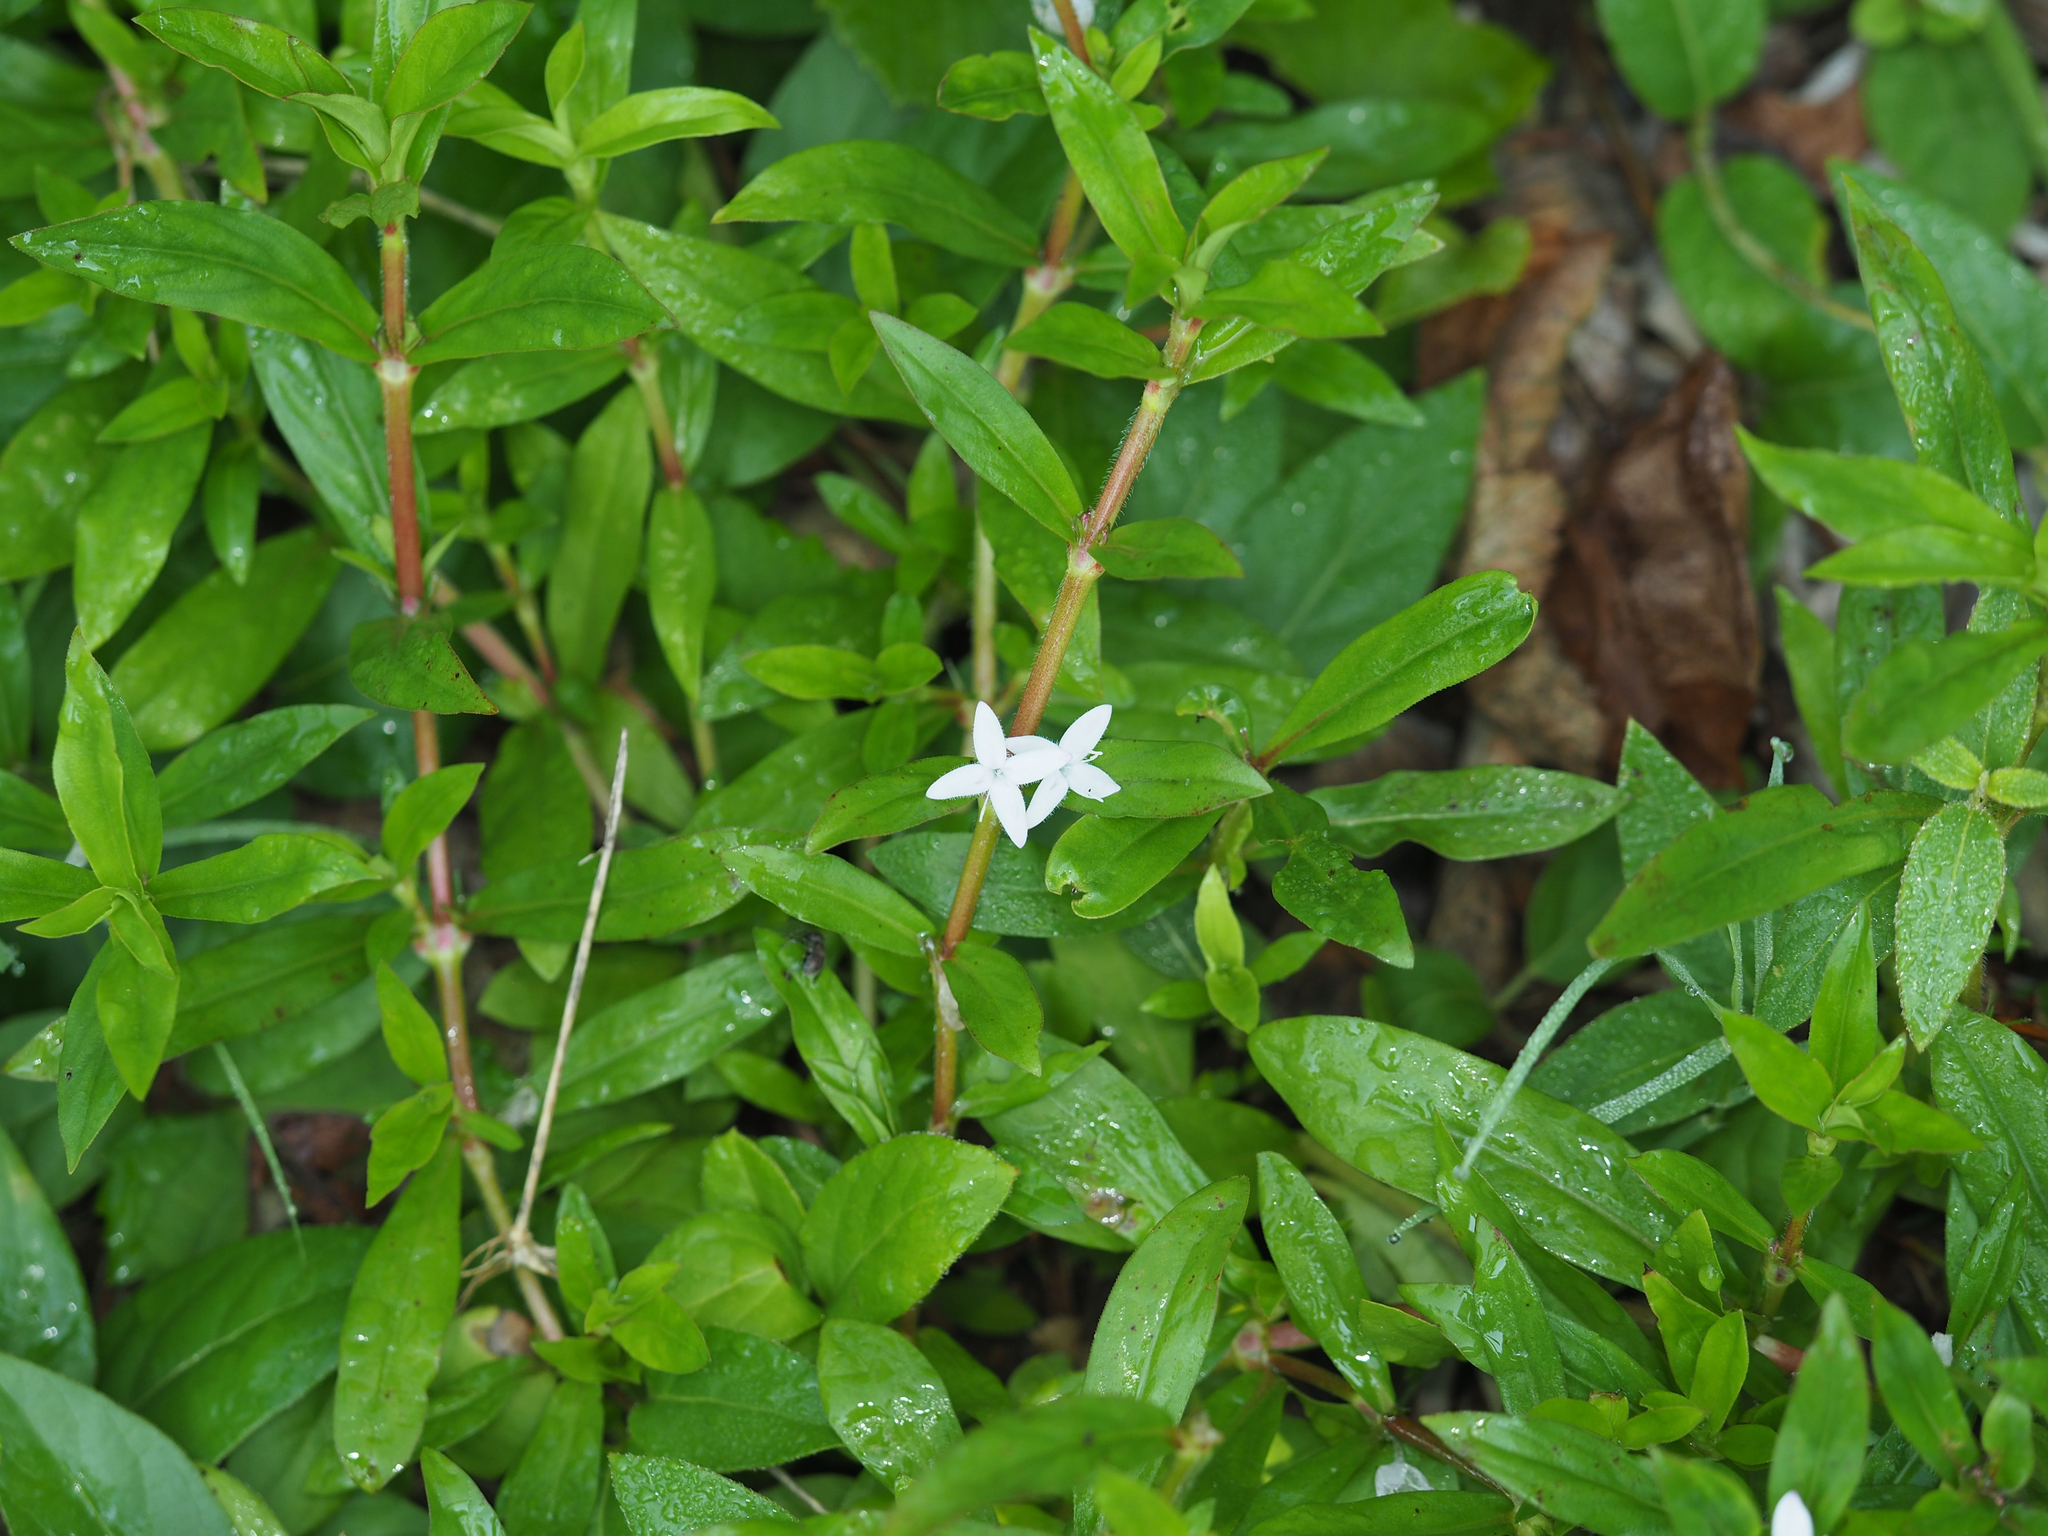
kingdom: Plantae
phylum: Tracheophyta
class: Magnoliopsida
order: Gentianales
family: Rubiaceae
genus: Diodia
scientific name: Diodia virginiana
